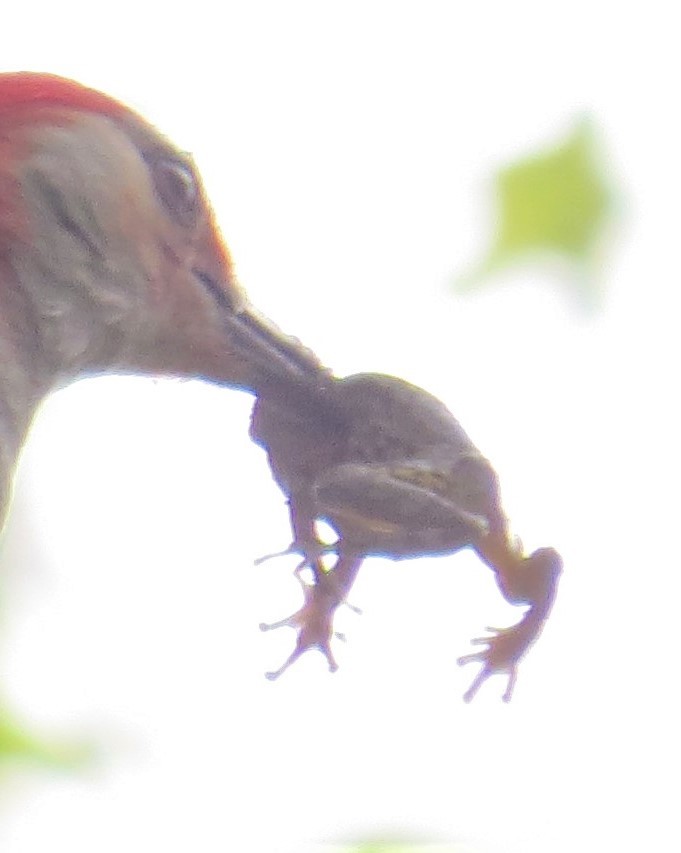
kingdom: Animalia
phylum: Chordata
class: Amphibia
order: Anura
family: Hylidae
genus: Hyla
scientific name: Hyla
